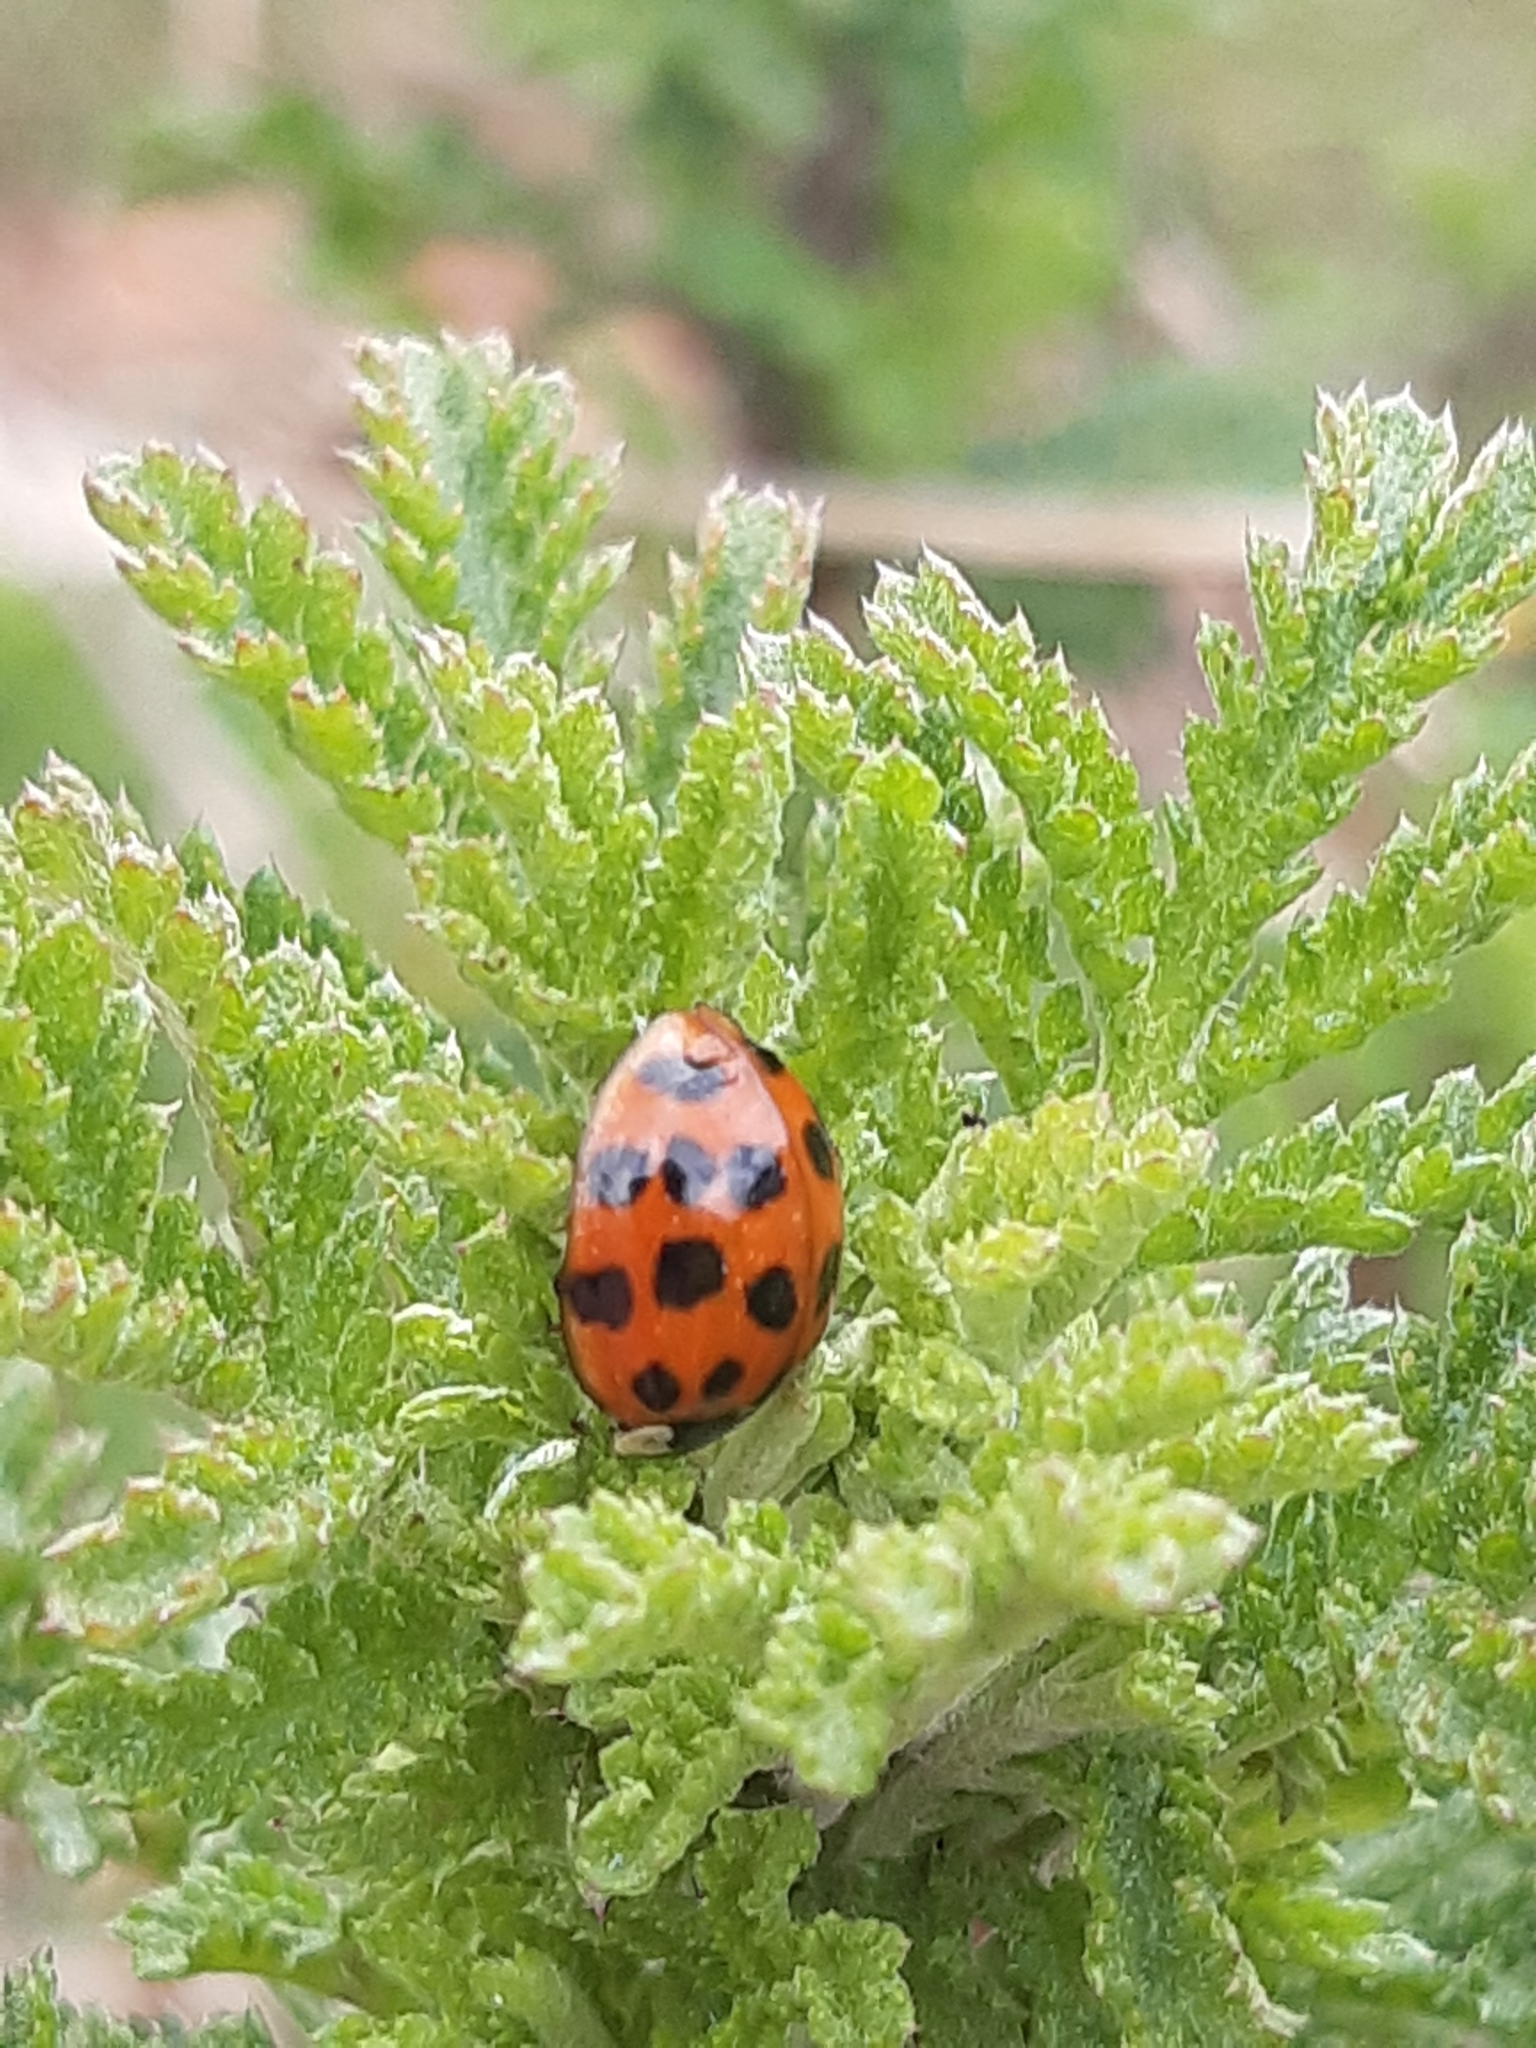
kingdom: Animalia
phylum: Arthropoda
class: Insecta
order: Coleoptera
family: Coccinellidae
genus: Harmonia
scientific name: Harmonia axyridis
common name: Harlequin ladybird
